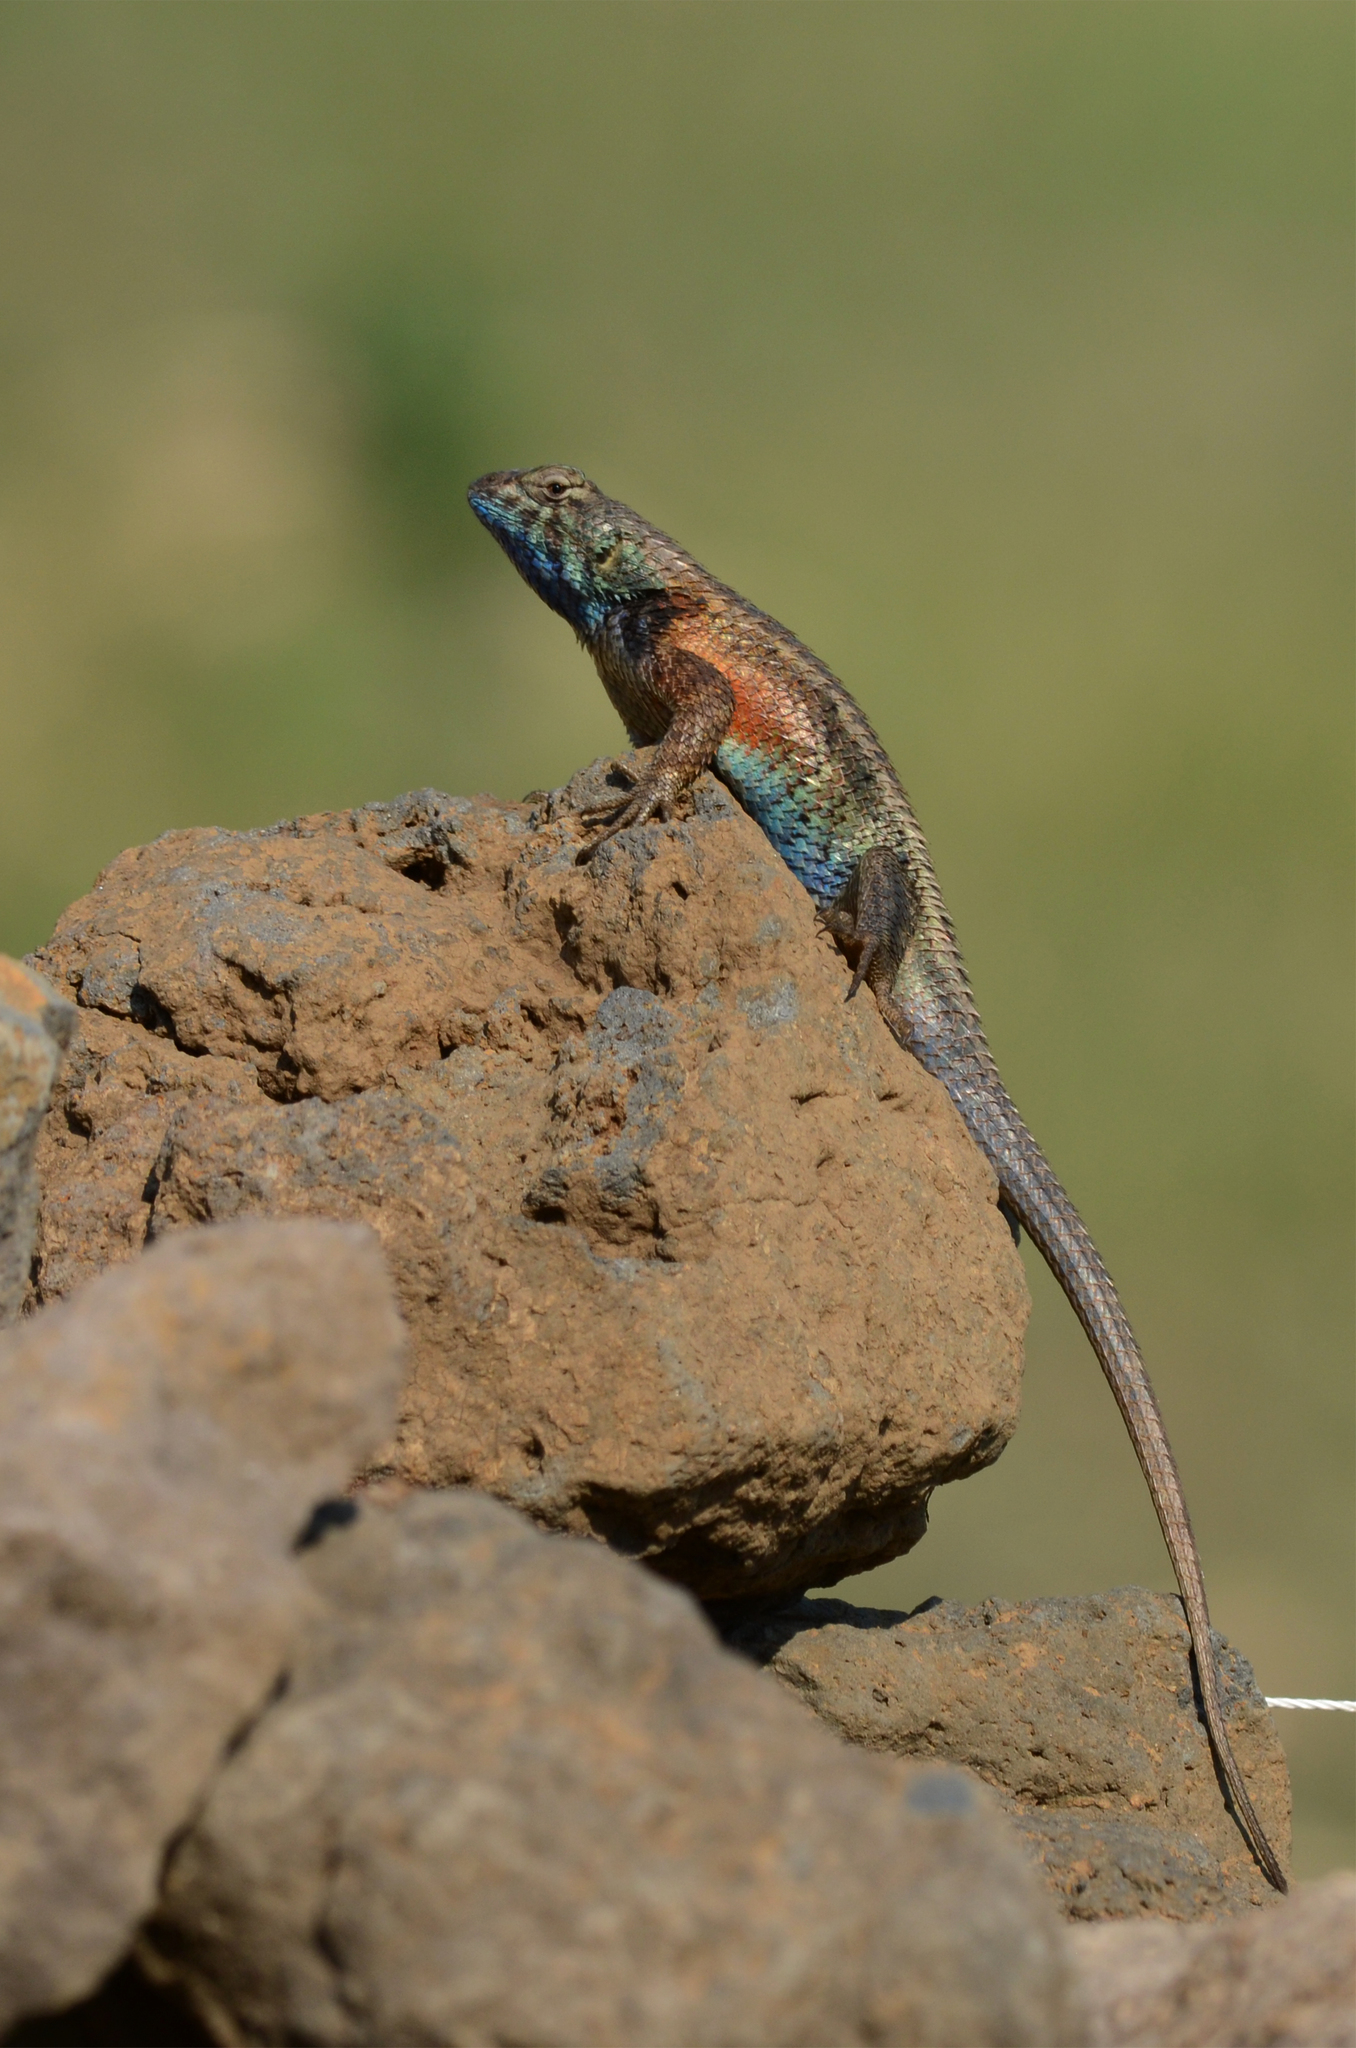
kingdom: Animalia
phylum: Chordata
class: Squamata
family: Phrynosomatidae
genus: Sceloporus
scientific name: Sceloporus horridus
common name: Few-pored rough lizard
